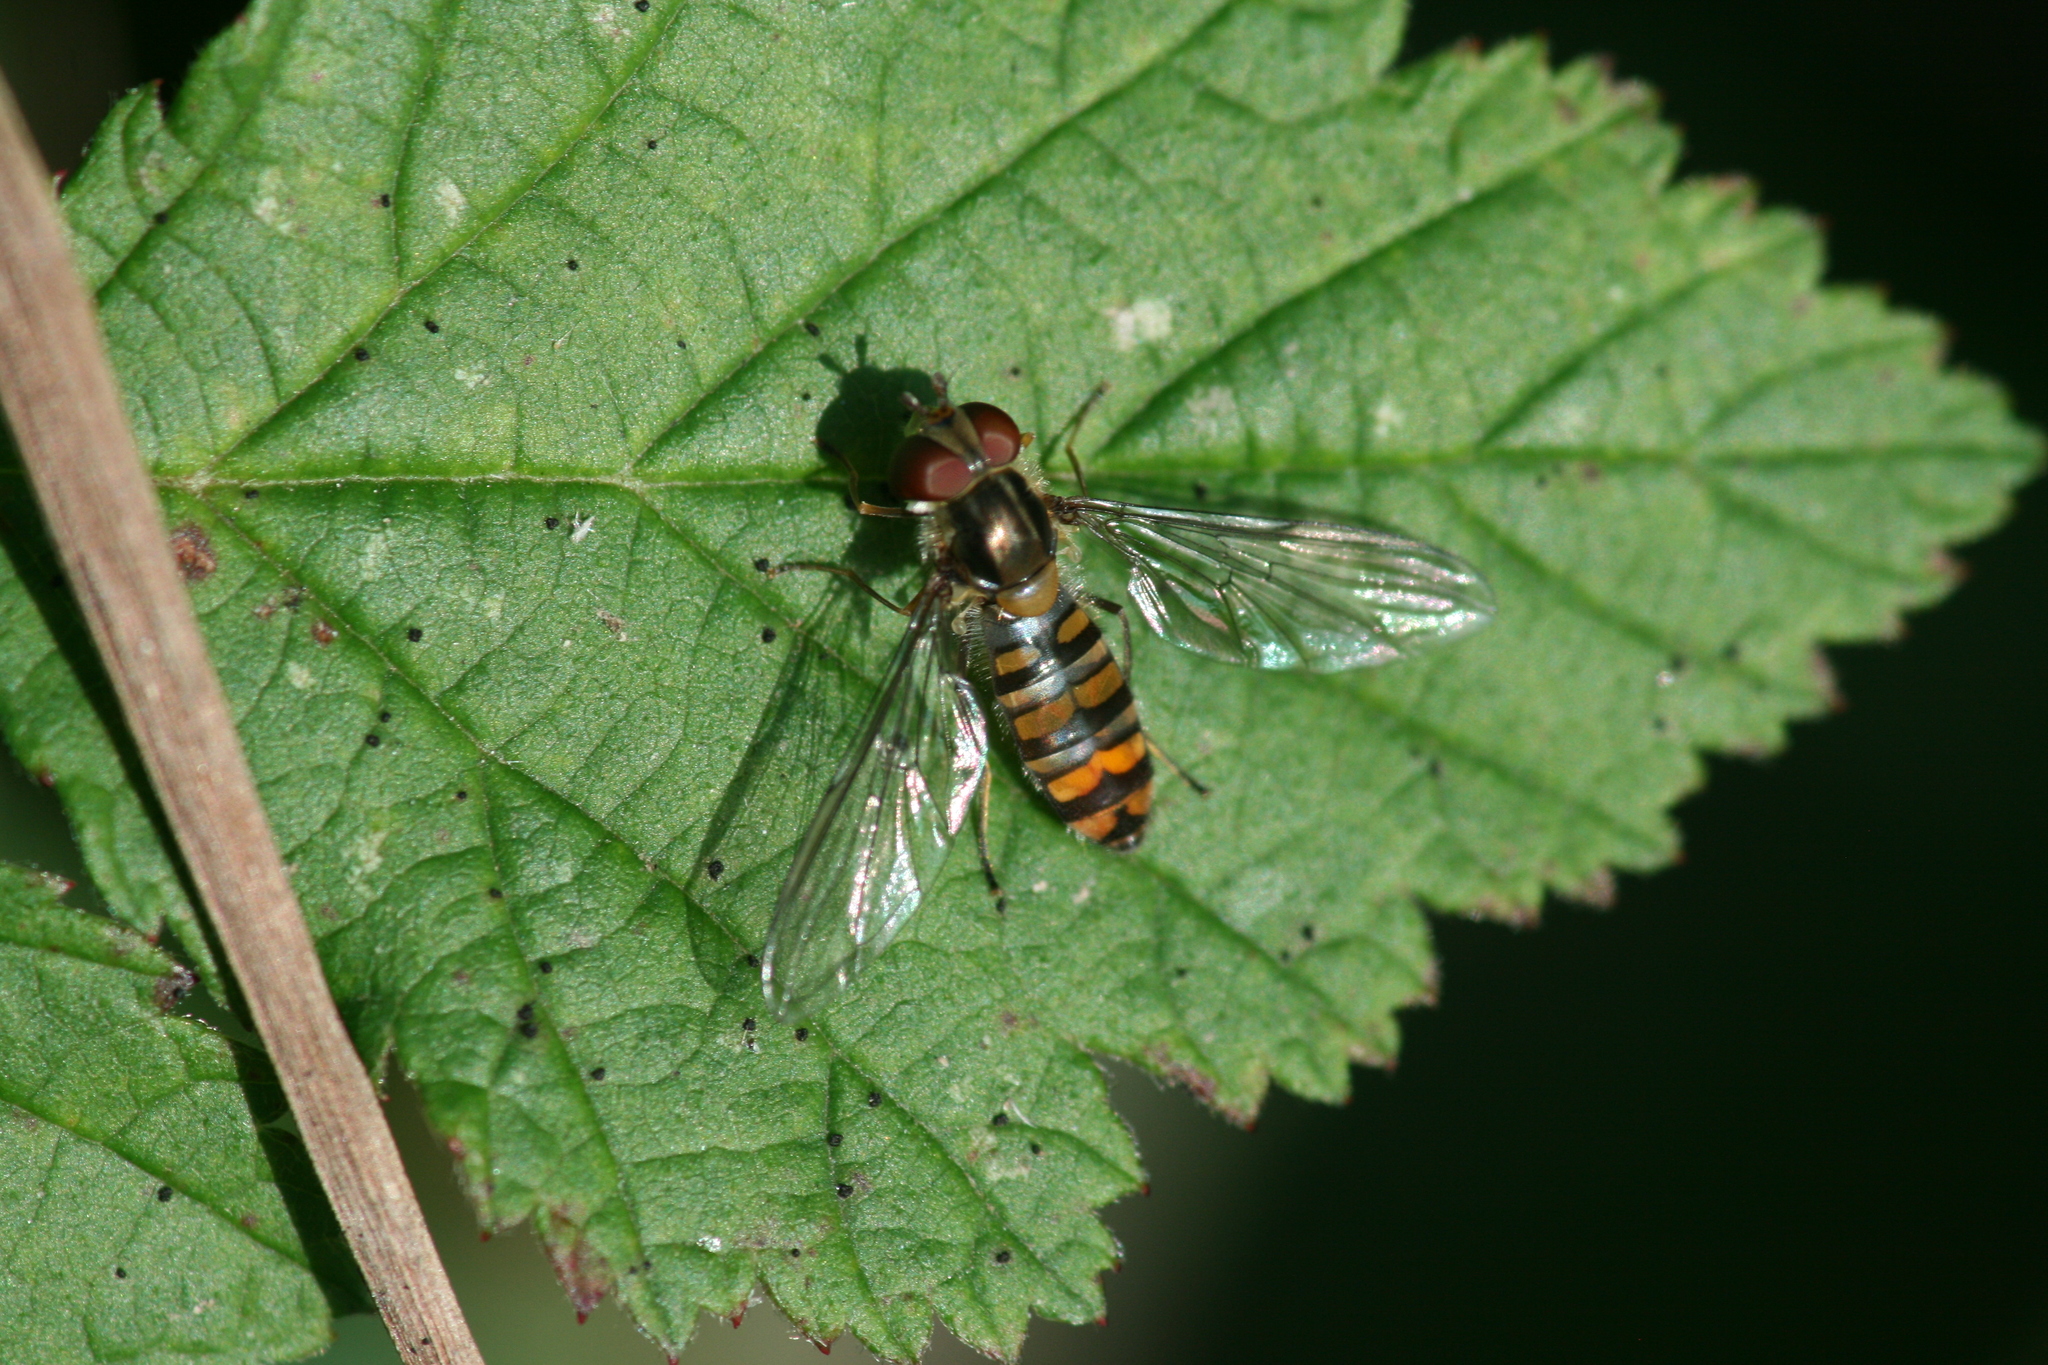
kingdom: Animalia
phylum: Arthropoda
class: Insecta
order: Diptera
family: Syrphidae
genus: Episyrphus
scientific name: Episyrphus balteatus
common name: Marmalade hoverfly
